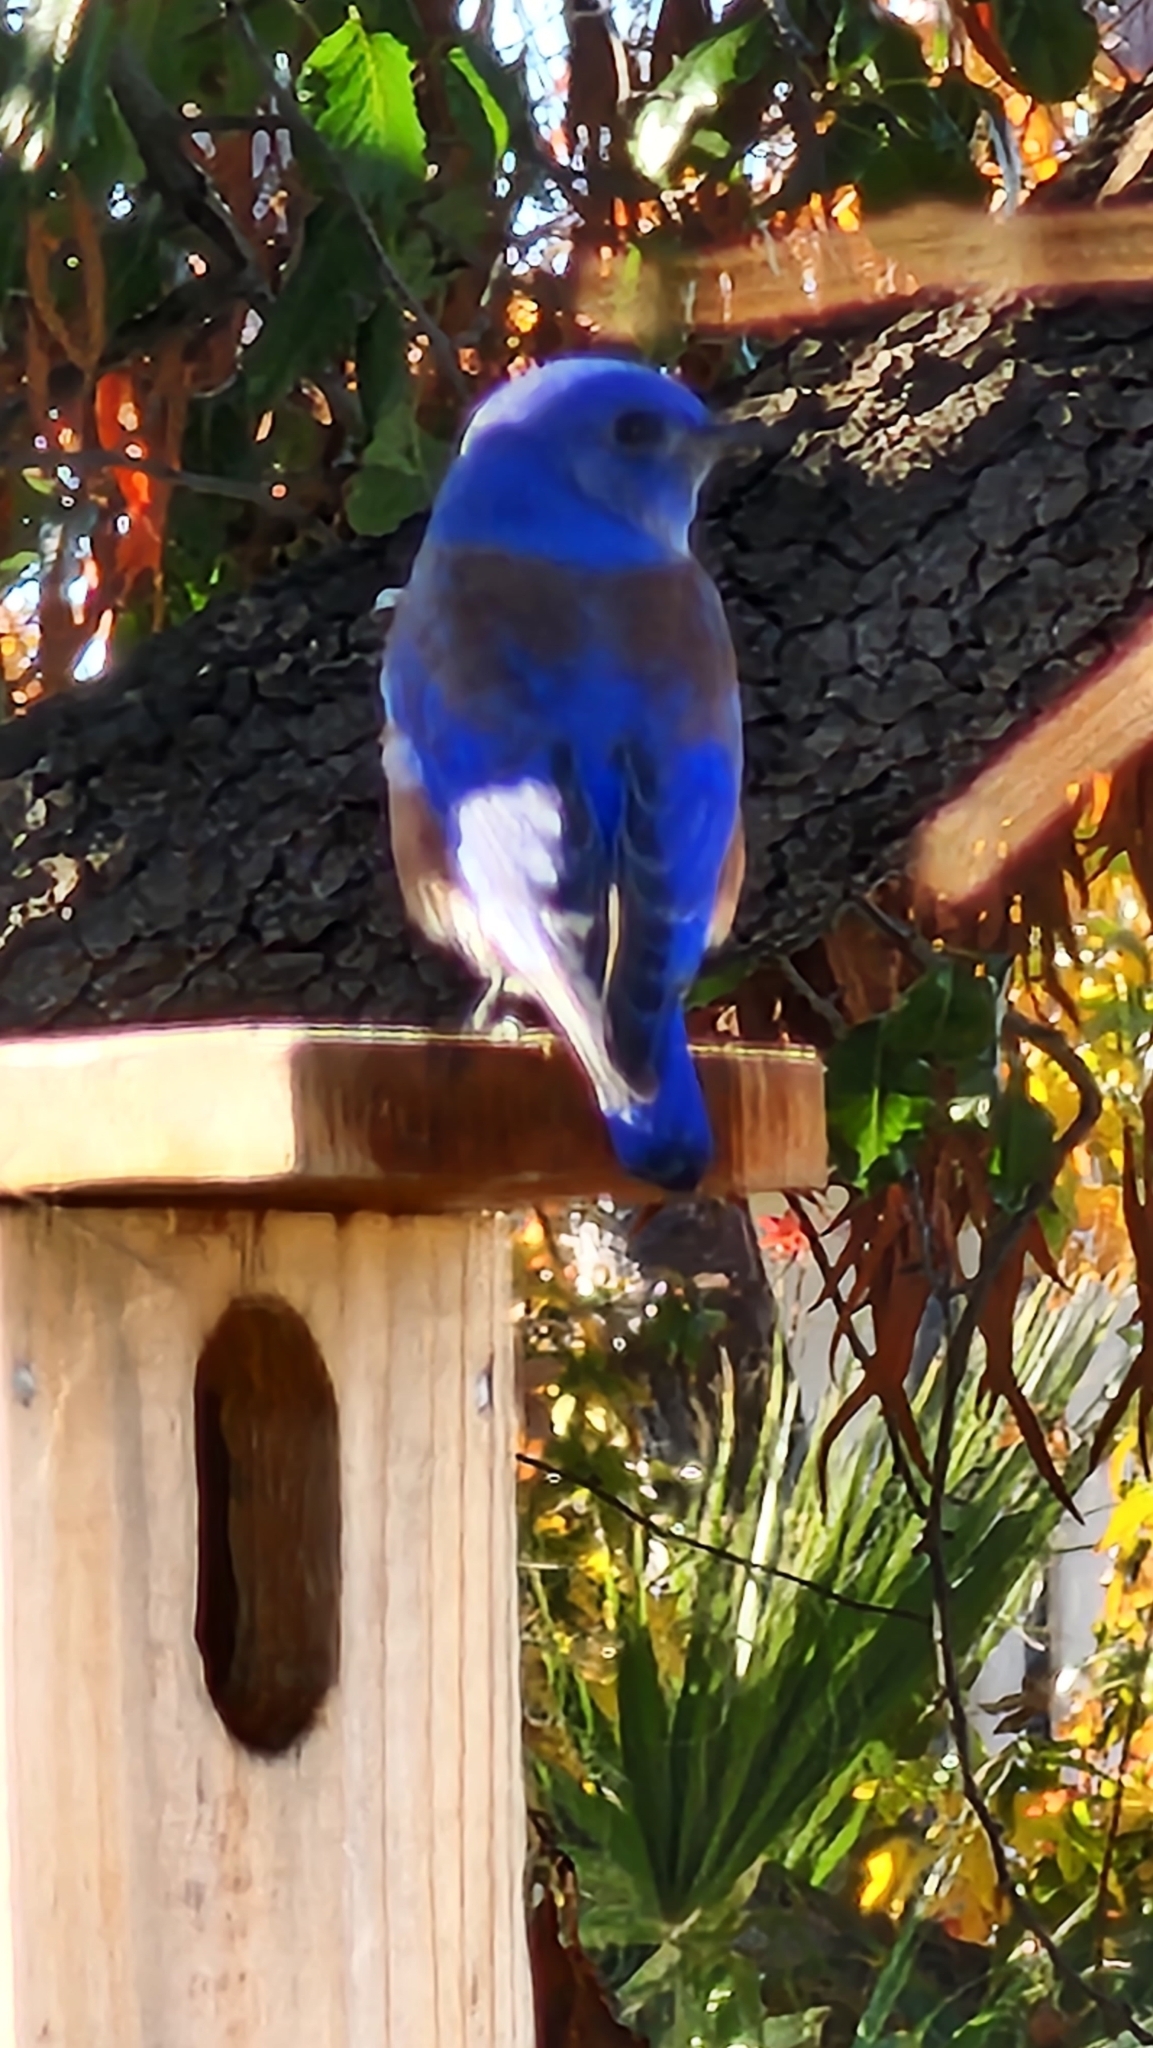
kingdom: Animalia
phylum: Chordata
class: Aves
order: Passeriformes
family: Turdidae
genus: Sialia
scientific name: Sialia mexicana
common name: Western bluebird
